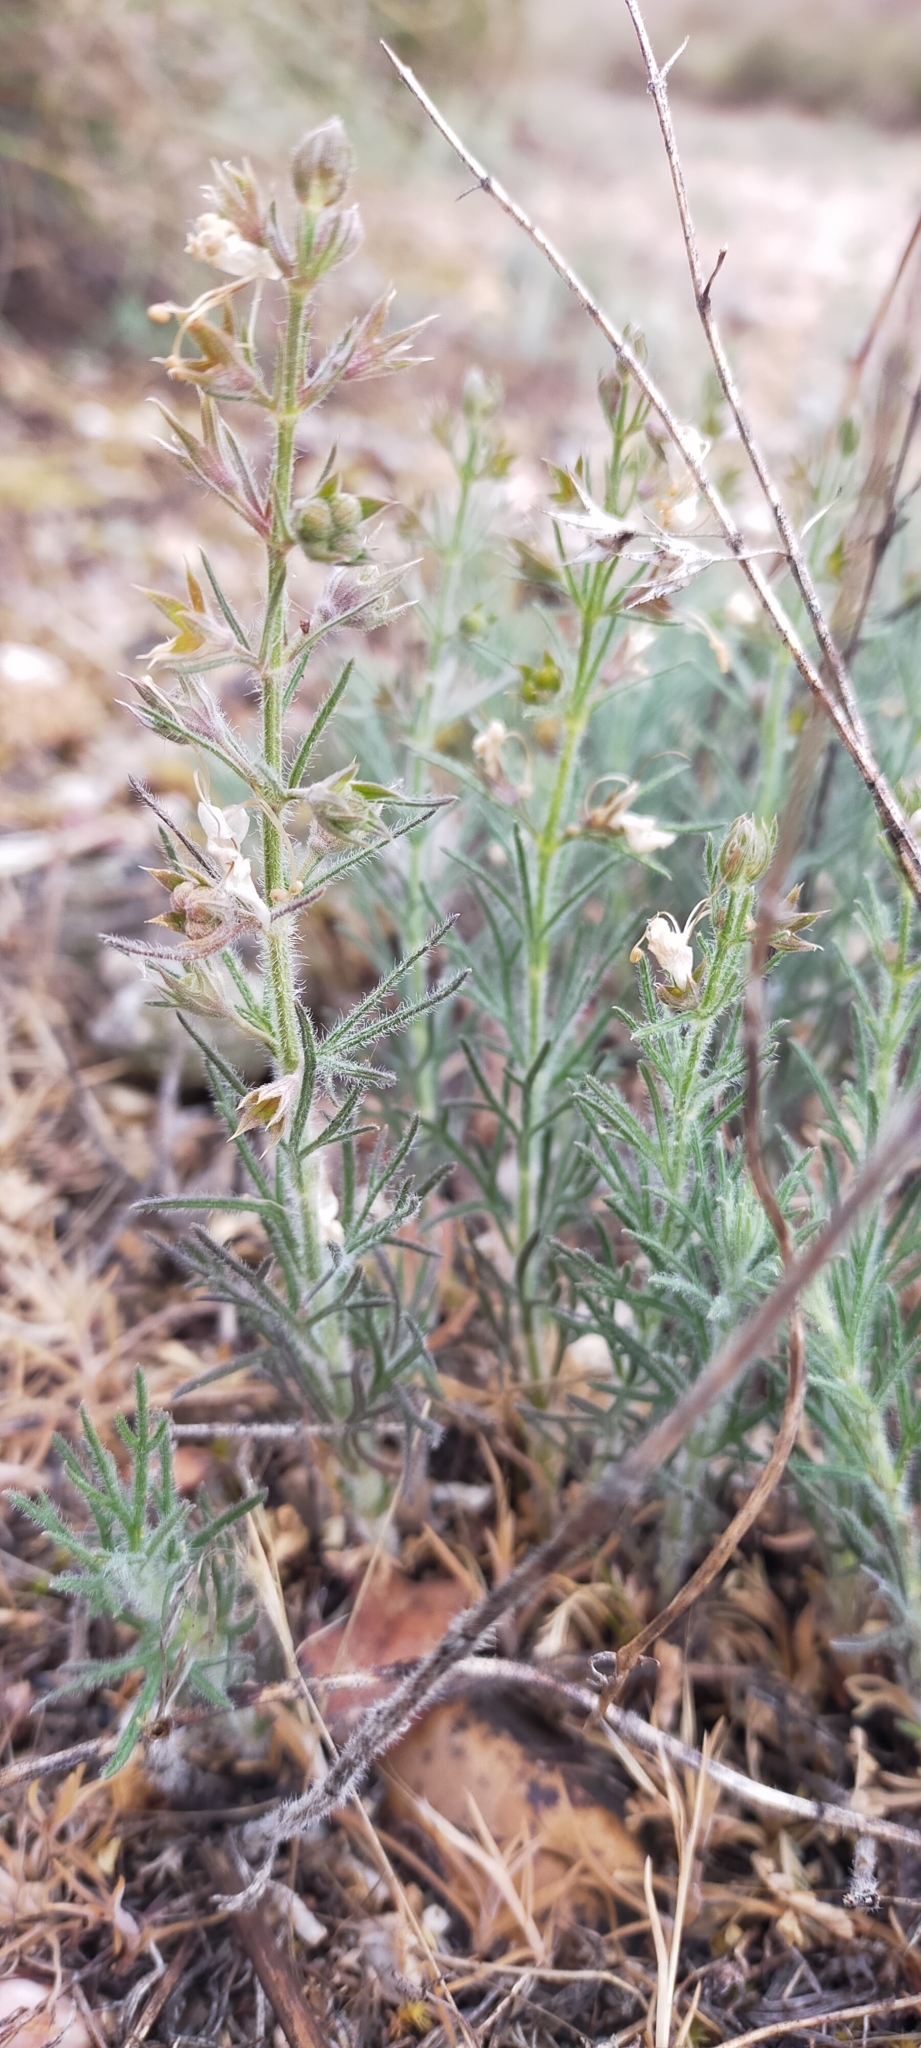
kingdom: Plantae
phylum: Tracheophyta
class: Magnoliopsida
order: Lamiales
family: Lamiaceae
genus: Teucrium
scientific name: Teucrium pseudochamaepitys
